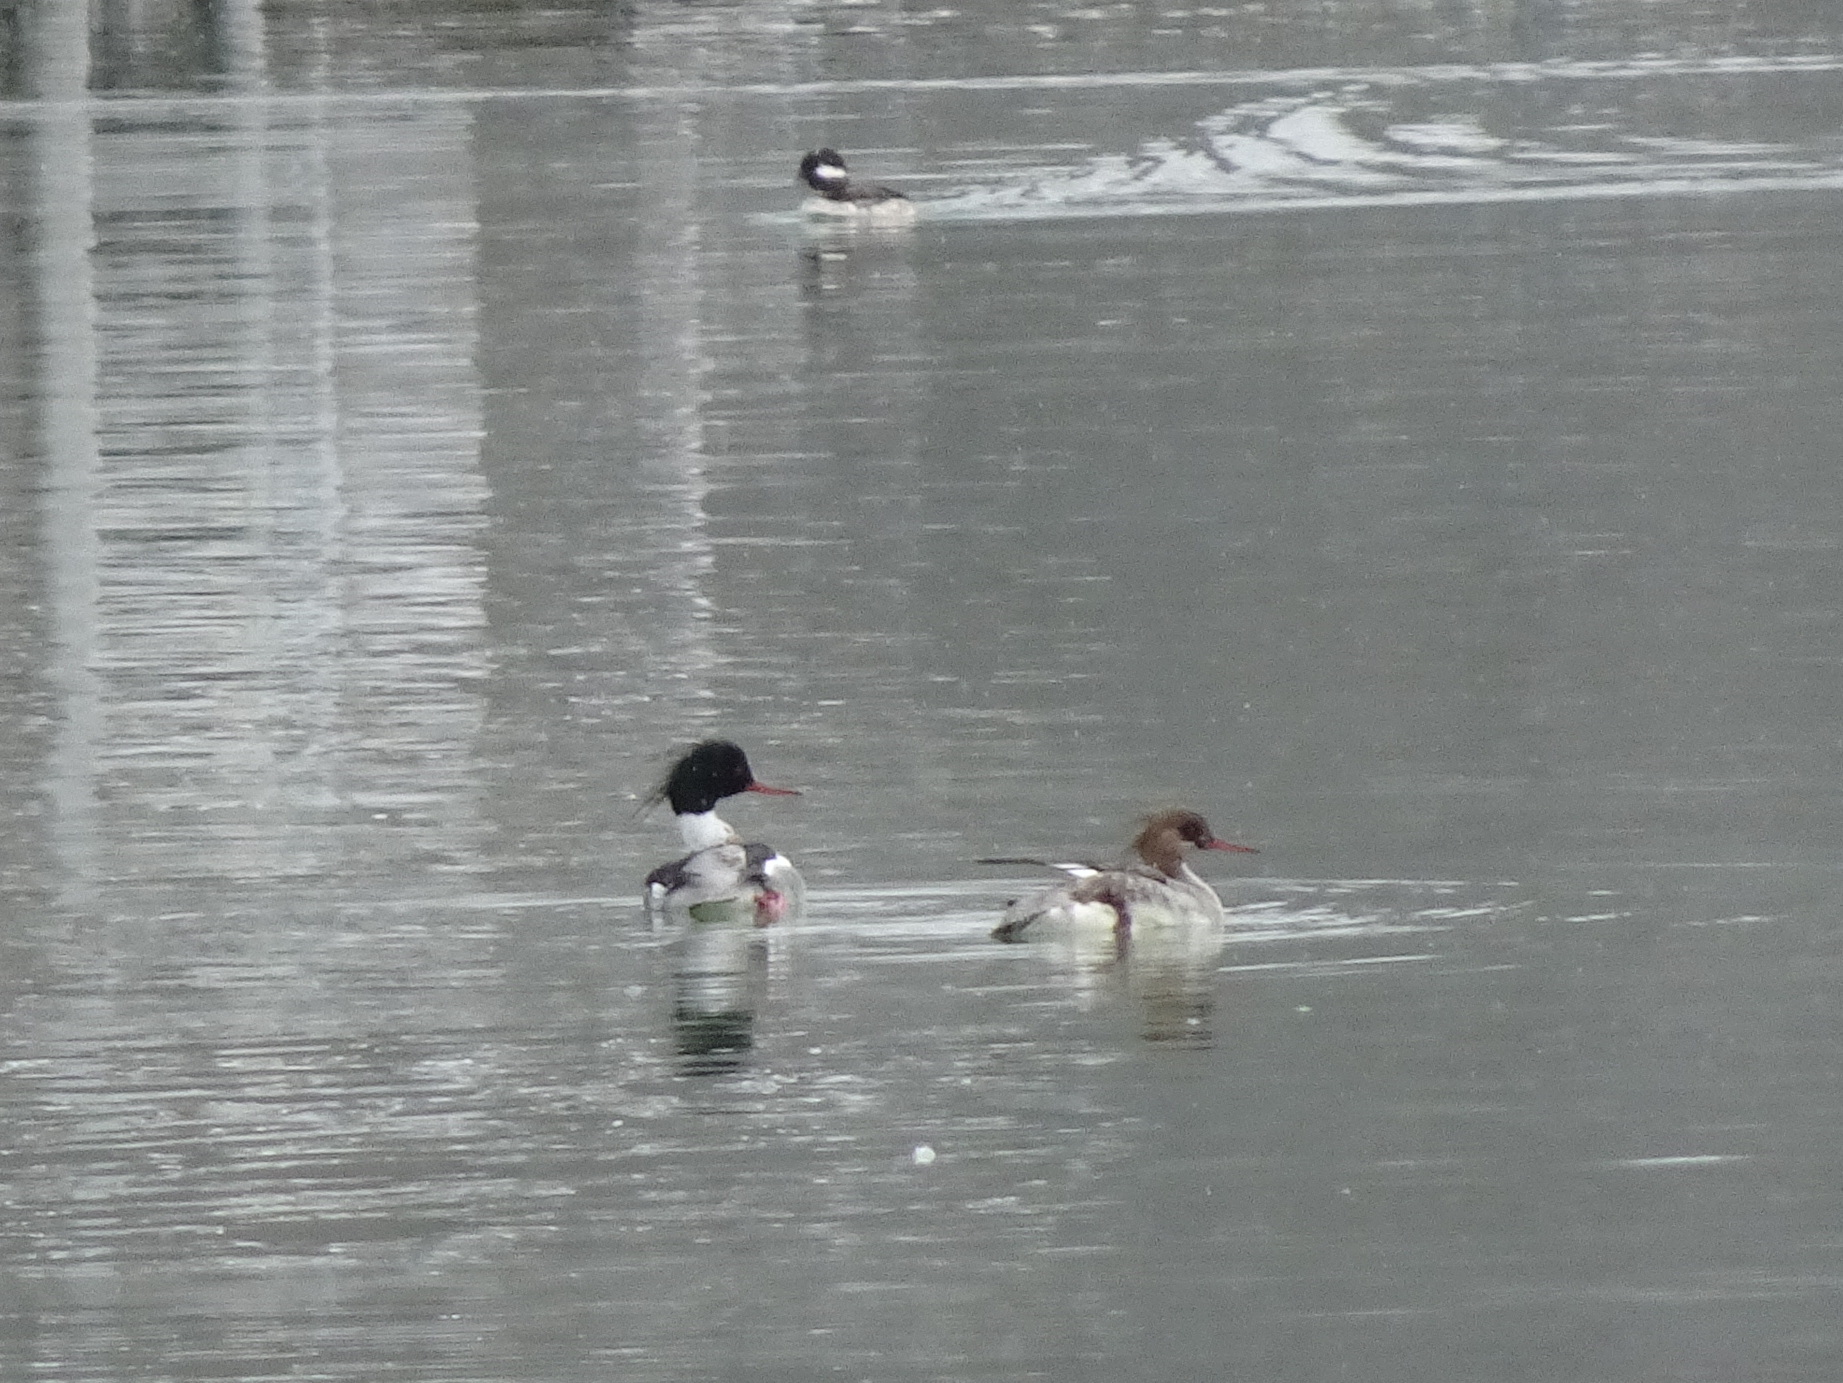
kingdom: Animalia
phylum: Chordata
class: Aves
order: Anseriformes
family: Anatidae
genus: Mergus
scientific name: Mergus serrator
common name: Red-breasted merganser
